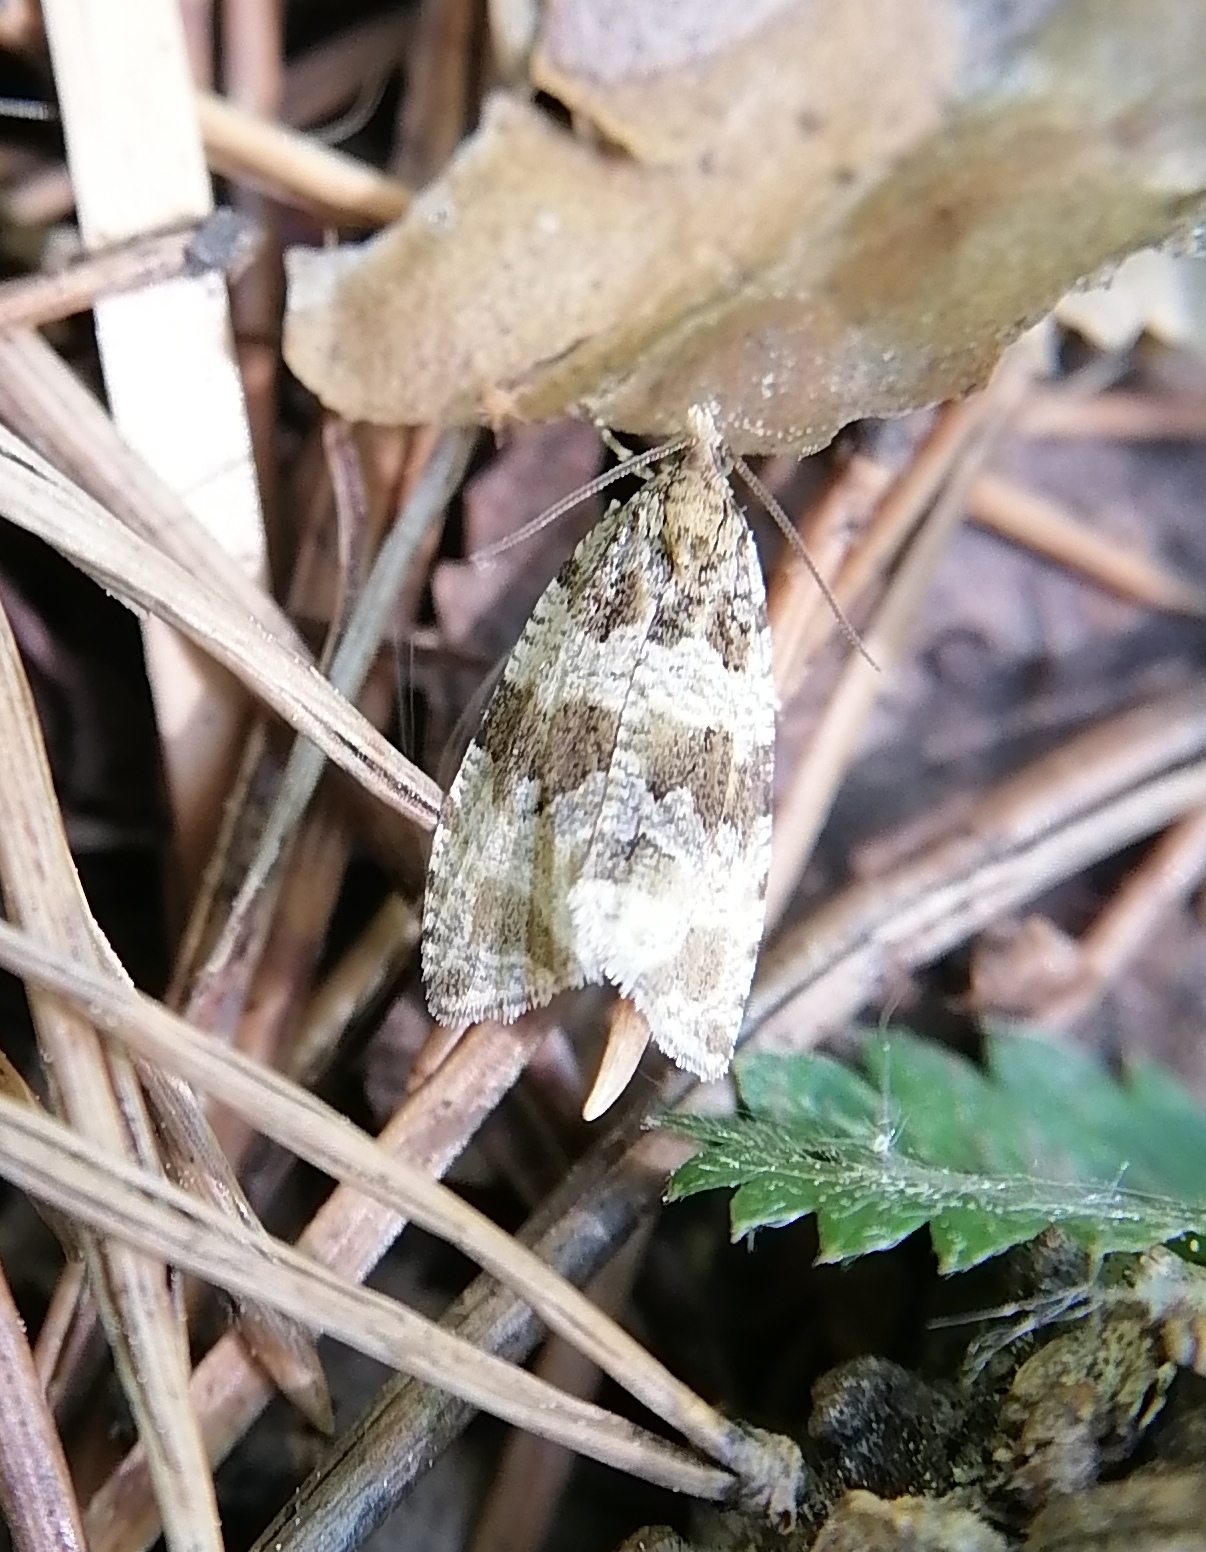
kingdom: Animalia
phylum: Arthropoda
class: Insecta
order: Lepidoptera
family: Tortricidae
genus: Orthotaenia
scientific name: Orthotaenia undulana
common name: Woodland marble
